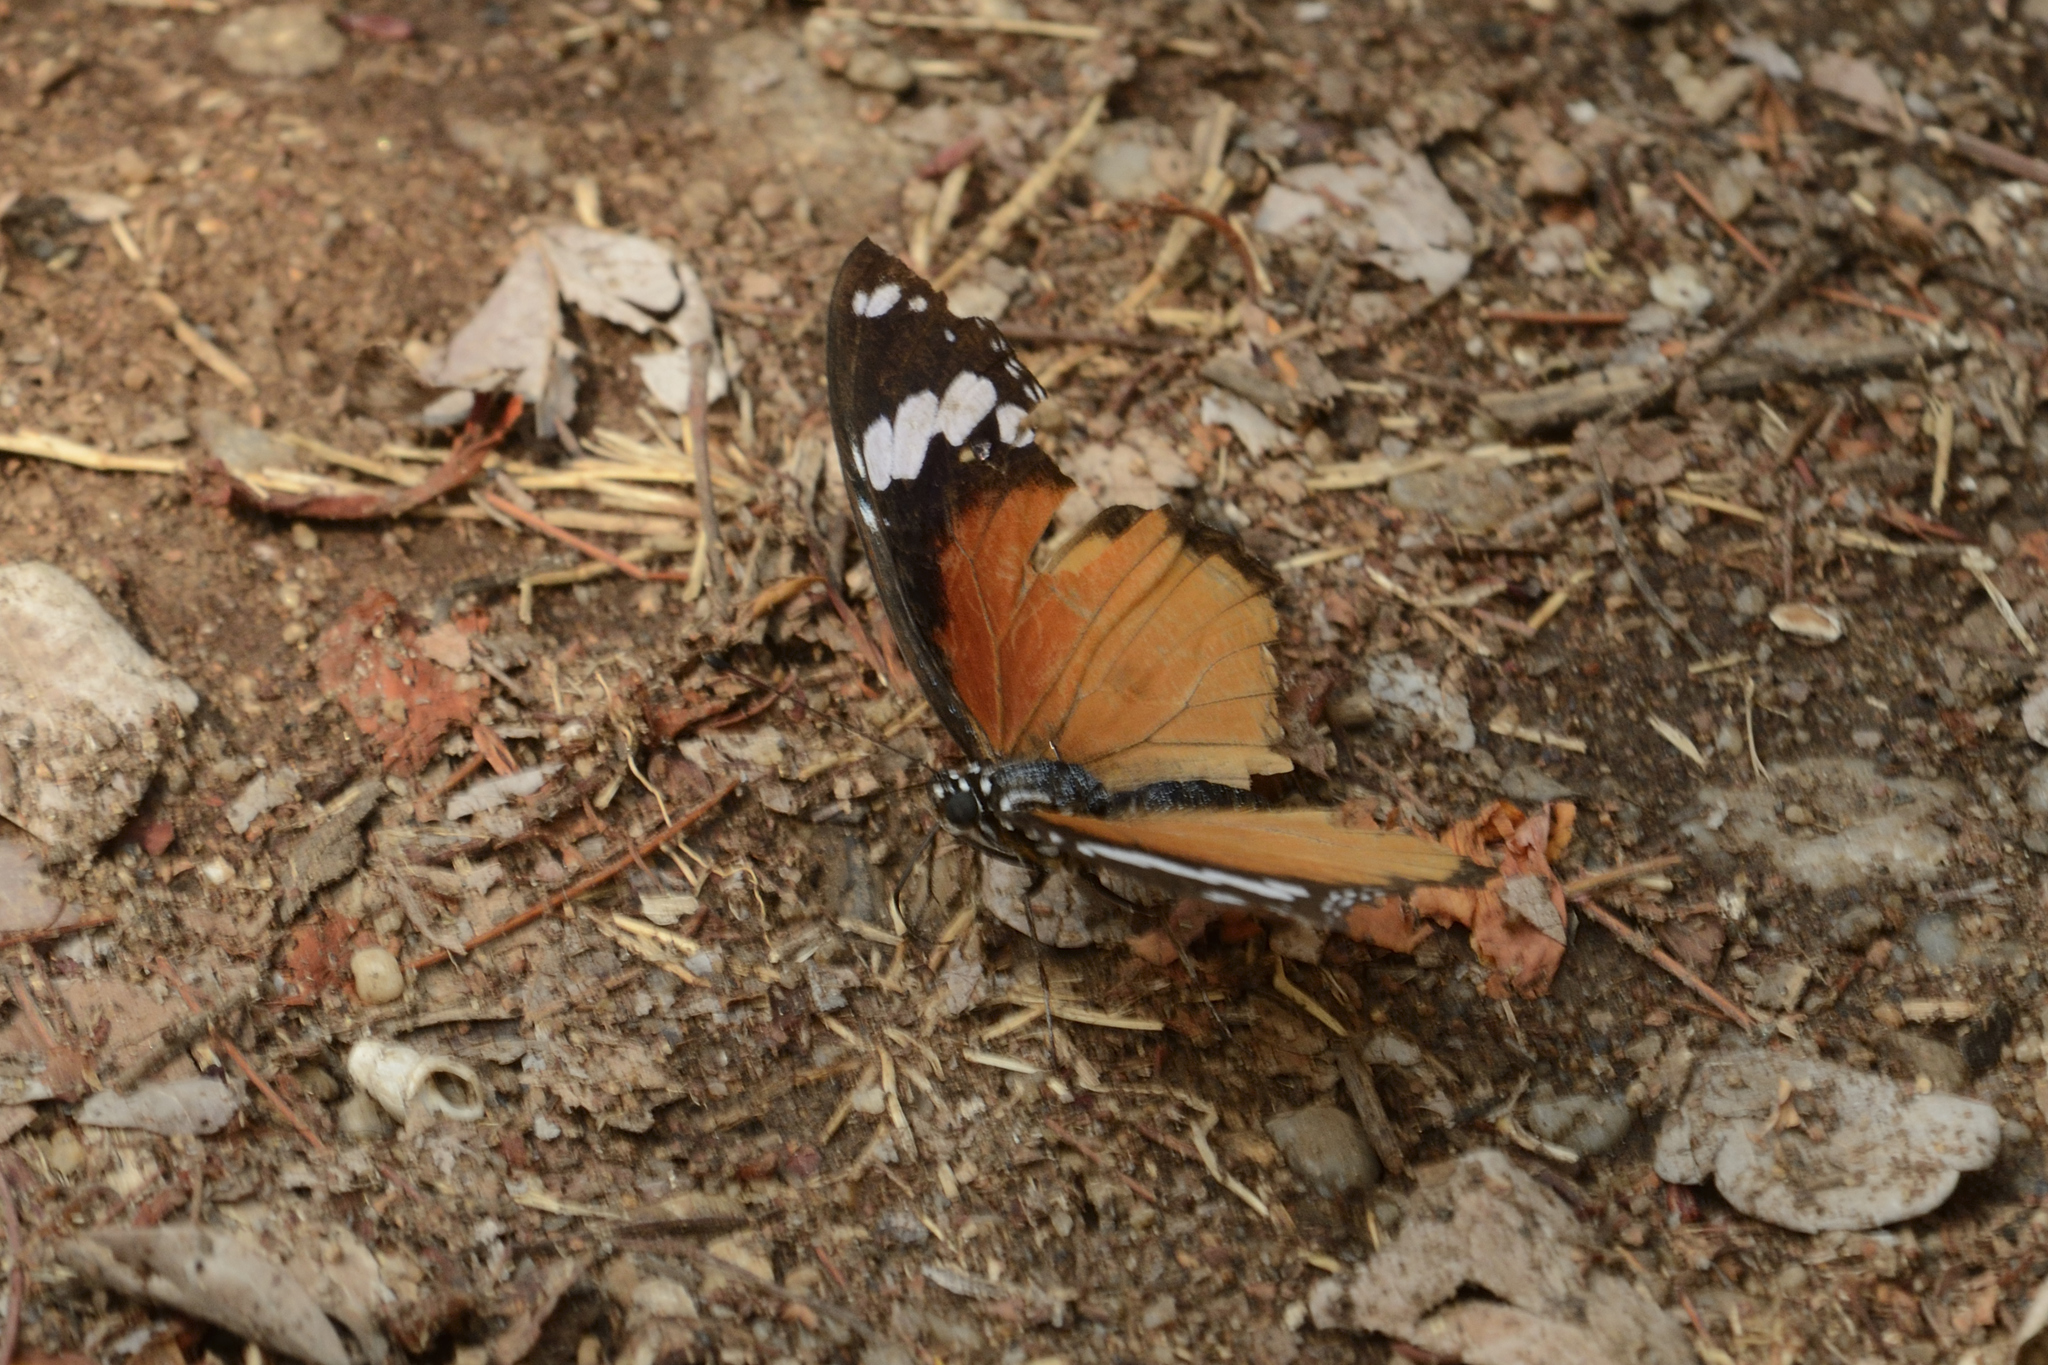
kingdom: Animalia
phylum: Arthropoda
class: Insecta
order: Lepidoptera
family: Nymphalidae
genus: Hypolimnas
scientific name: Hypolimnas misippus
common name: False plain tiger
